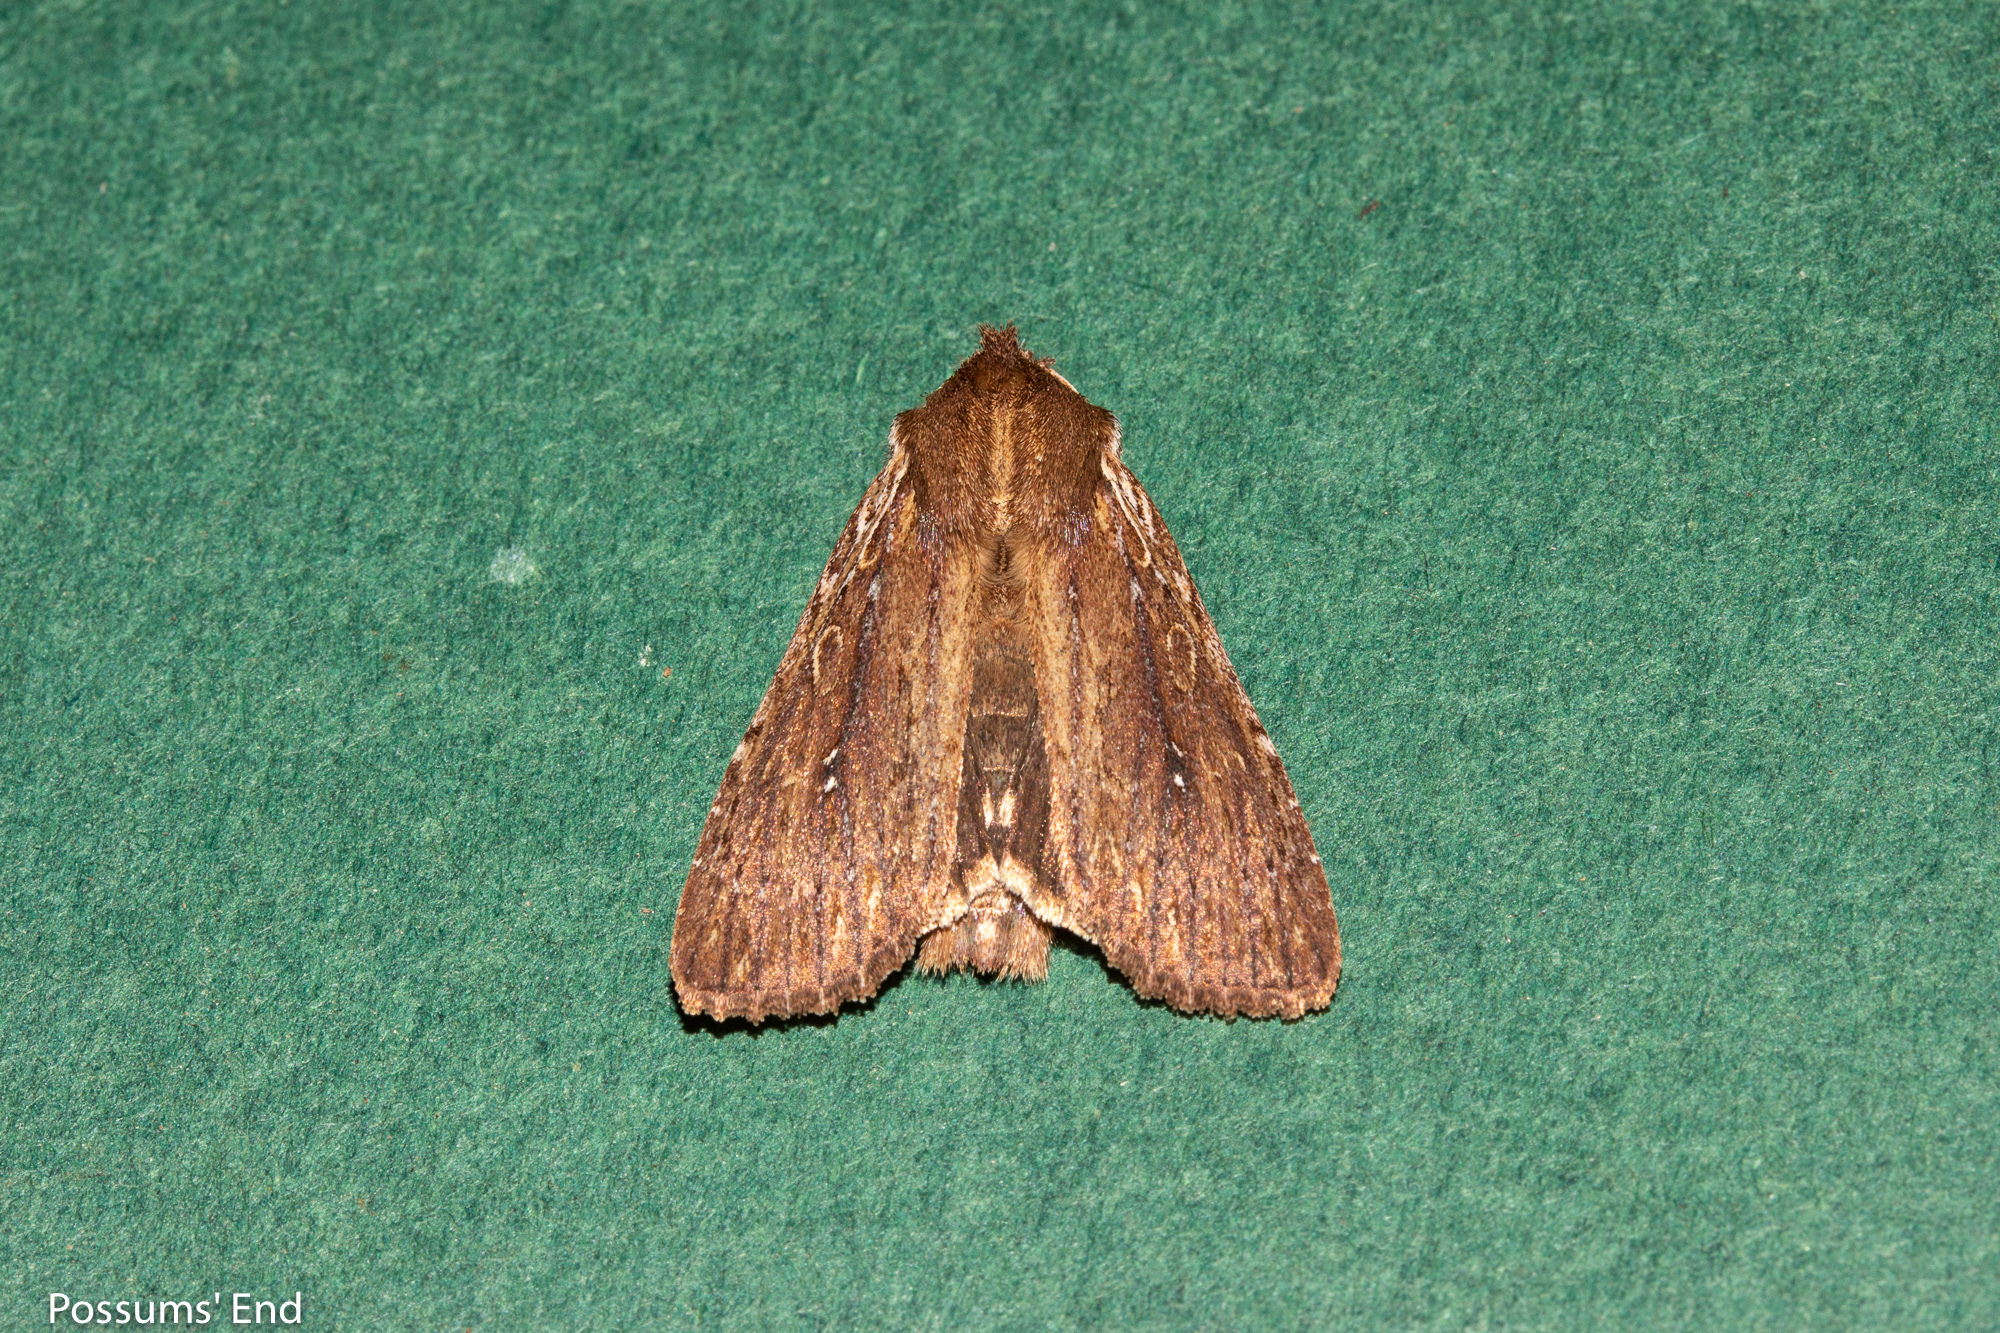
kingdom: Animalia
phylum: Arthropoda
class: Insecta
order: Lepidoptera
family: Noctuidae
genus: Ichneutica
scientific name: Ichneutica
